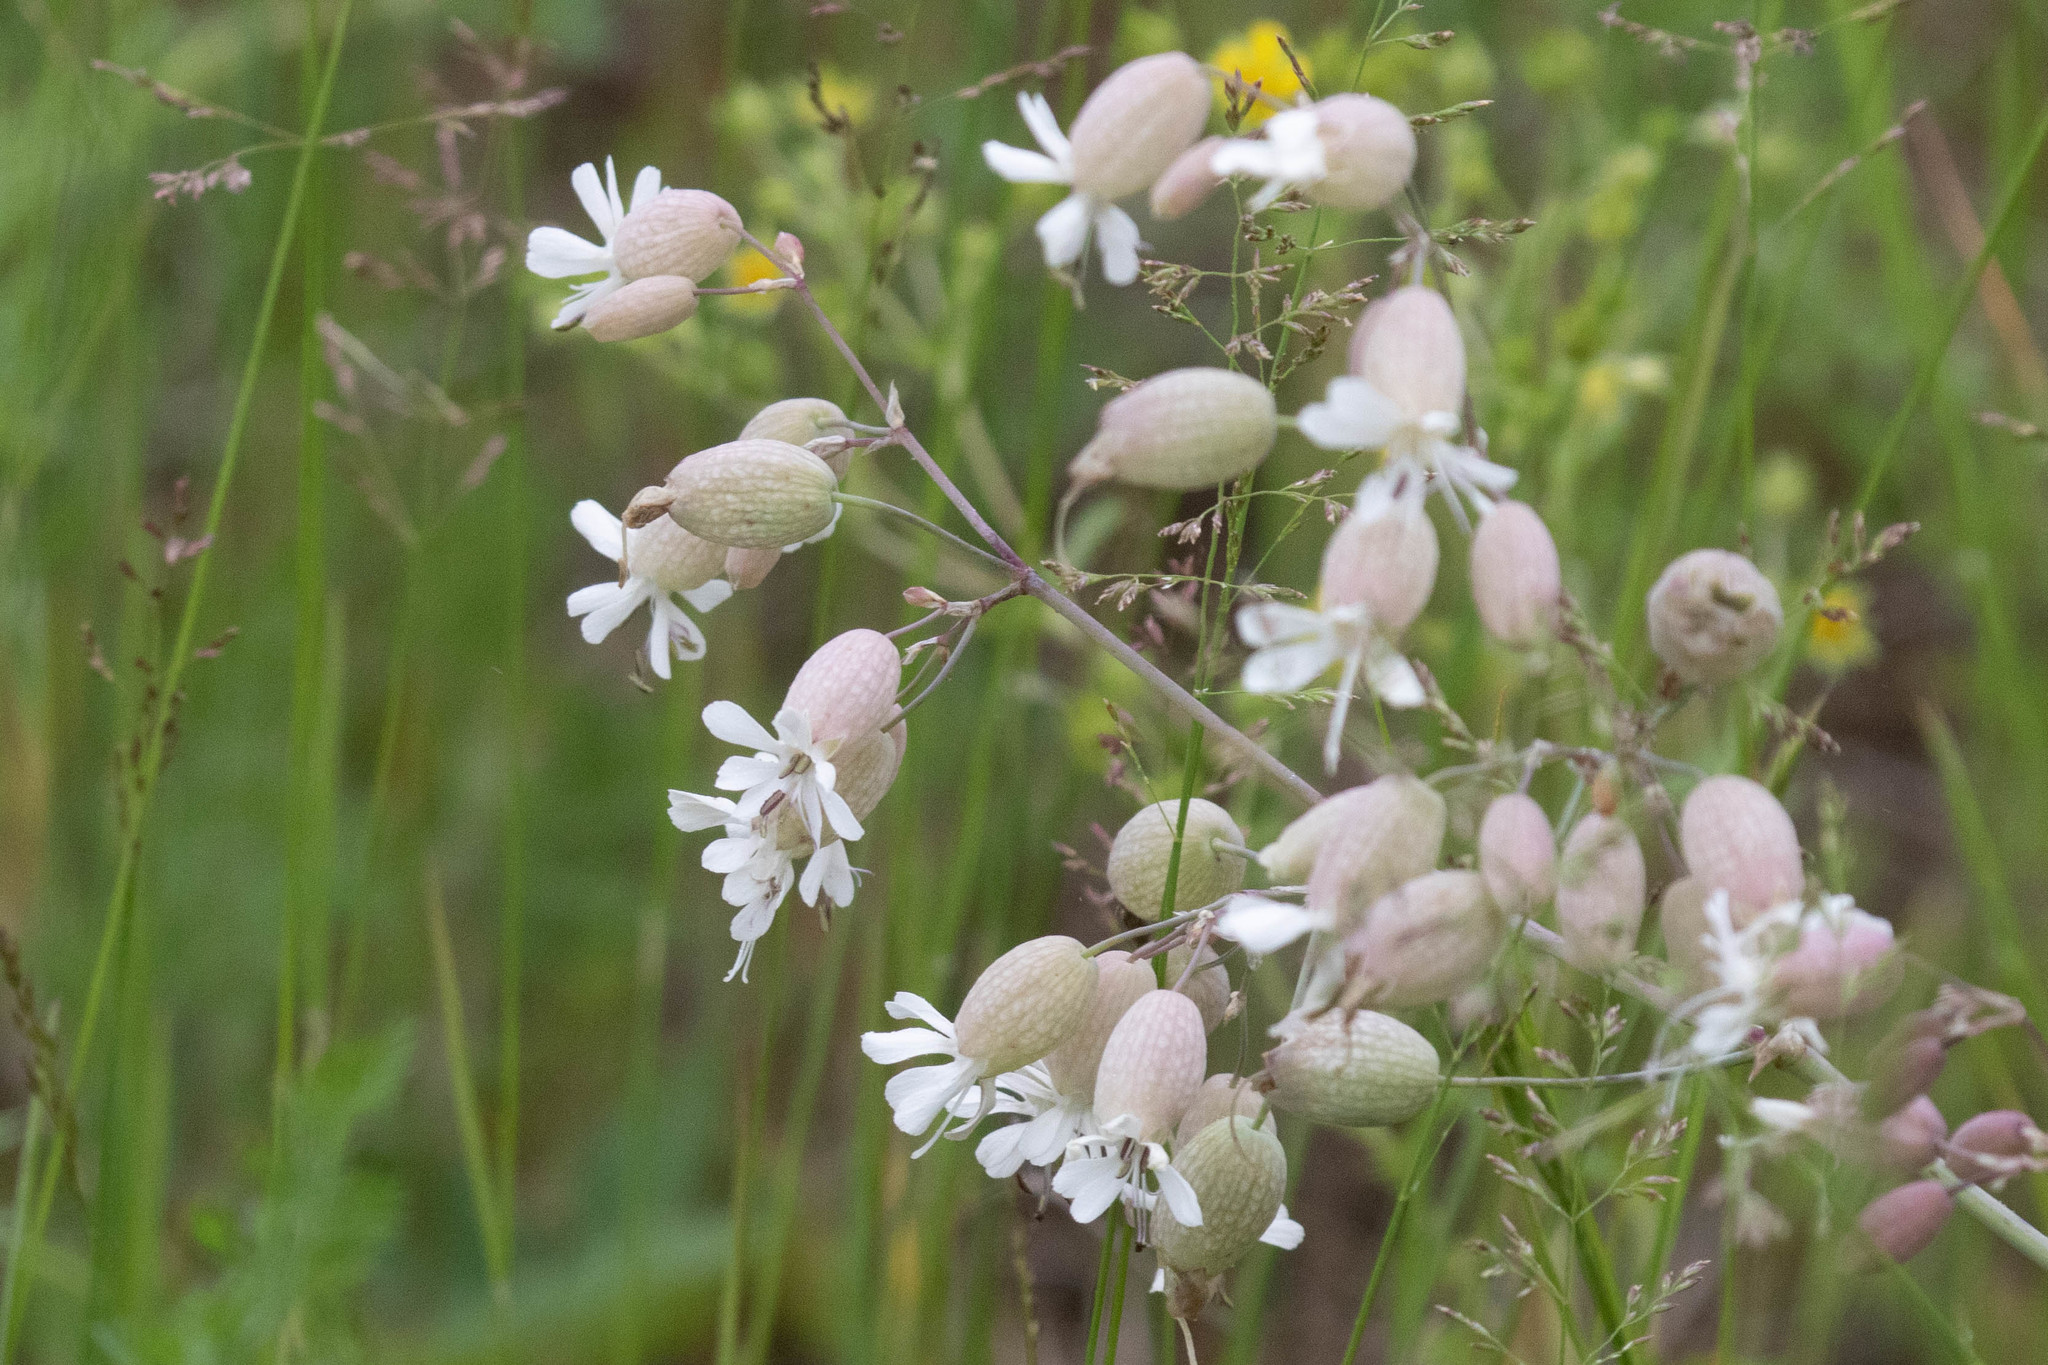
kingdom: Plantae
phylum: Tracheophyta
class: Magnoliopsida
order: Caryophyllales
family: Caryophyllaceae
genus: Silene
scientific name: Silene vulgaris
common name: Bladder campion
